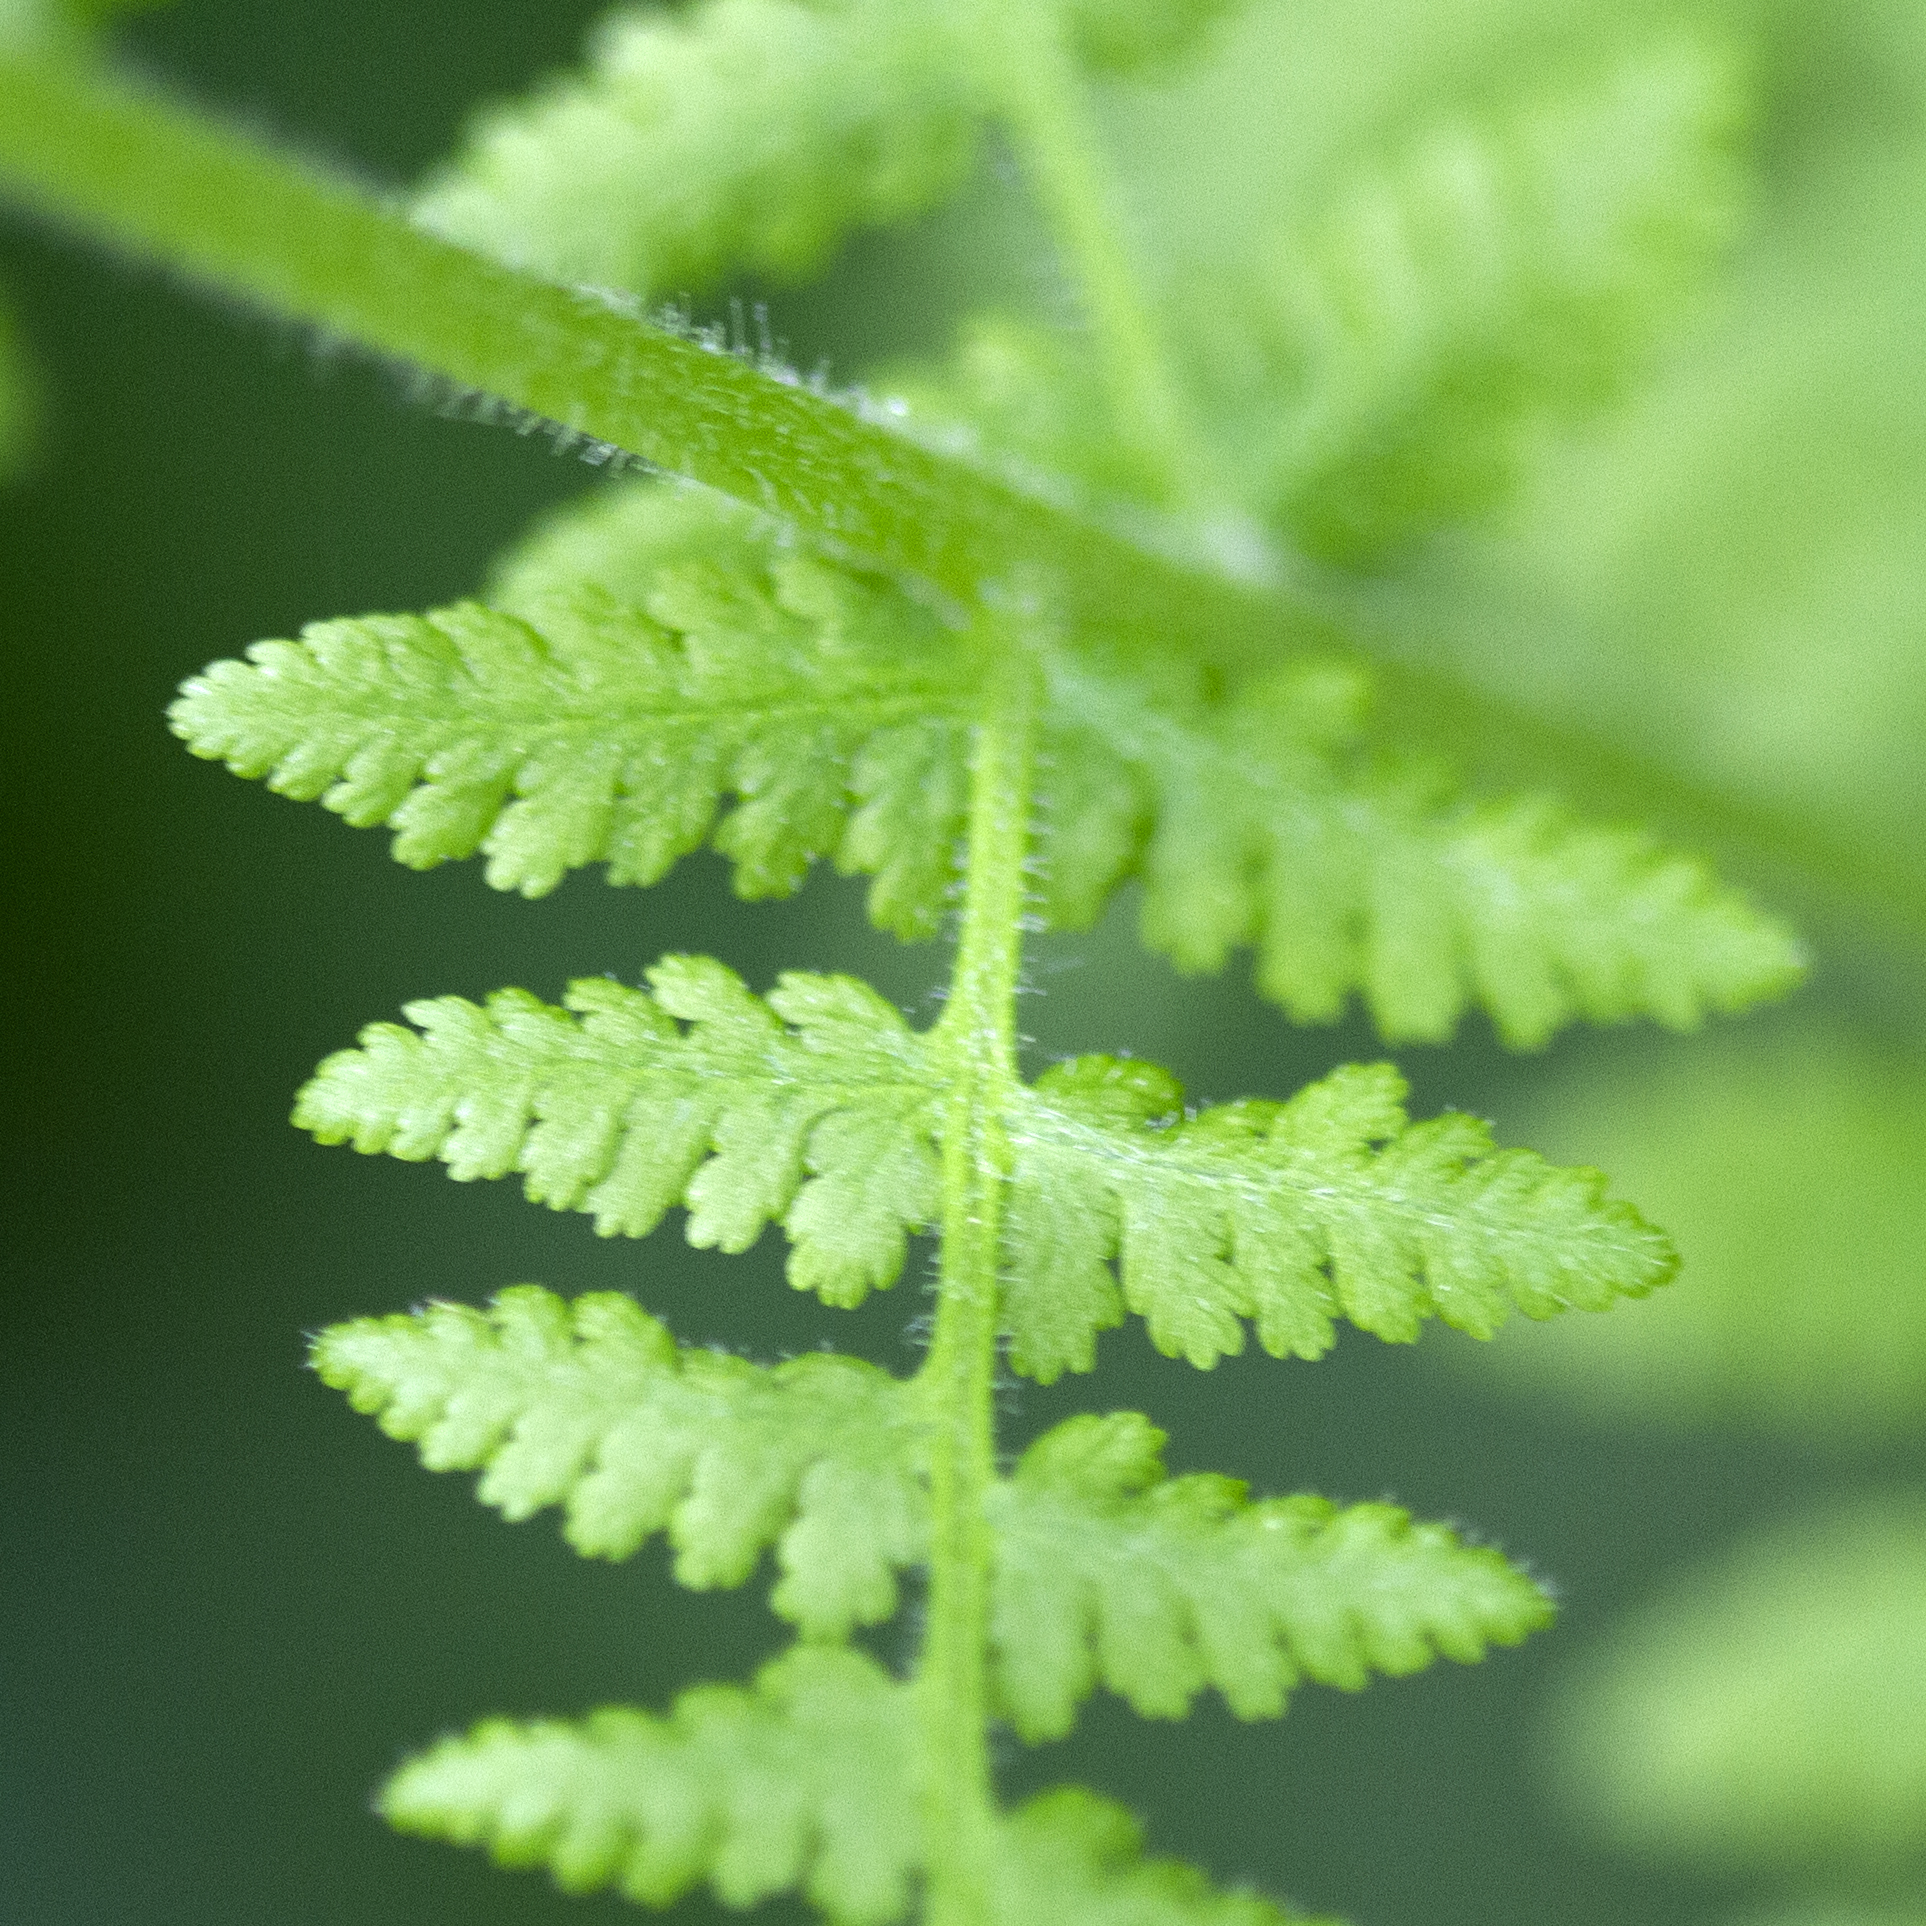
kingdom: Plantae
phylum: Tracheophyta
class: Polypodiopsida
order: Polypodiales
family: Dennstaedtiaceae
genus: Sitobolium
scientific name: Sitobolium punctilobum
